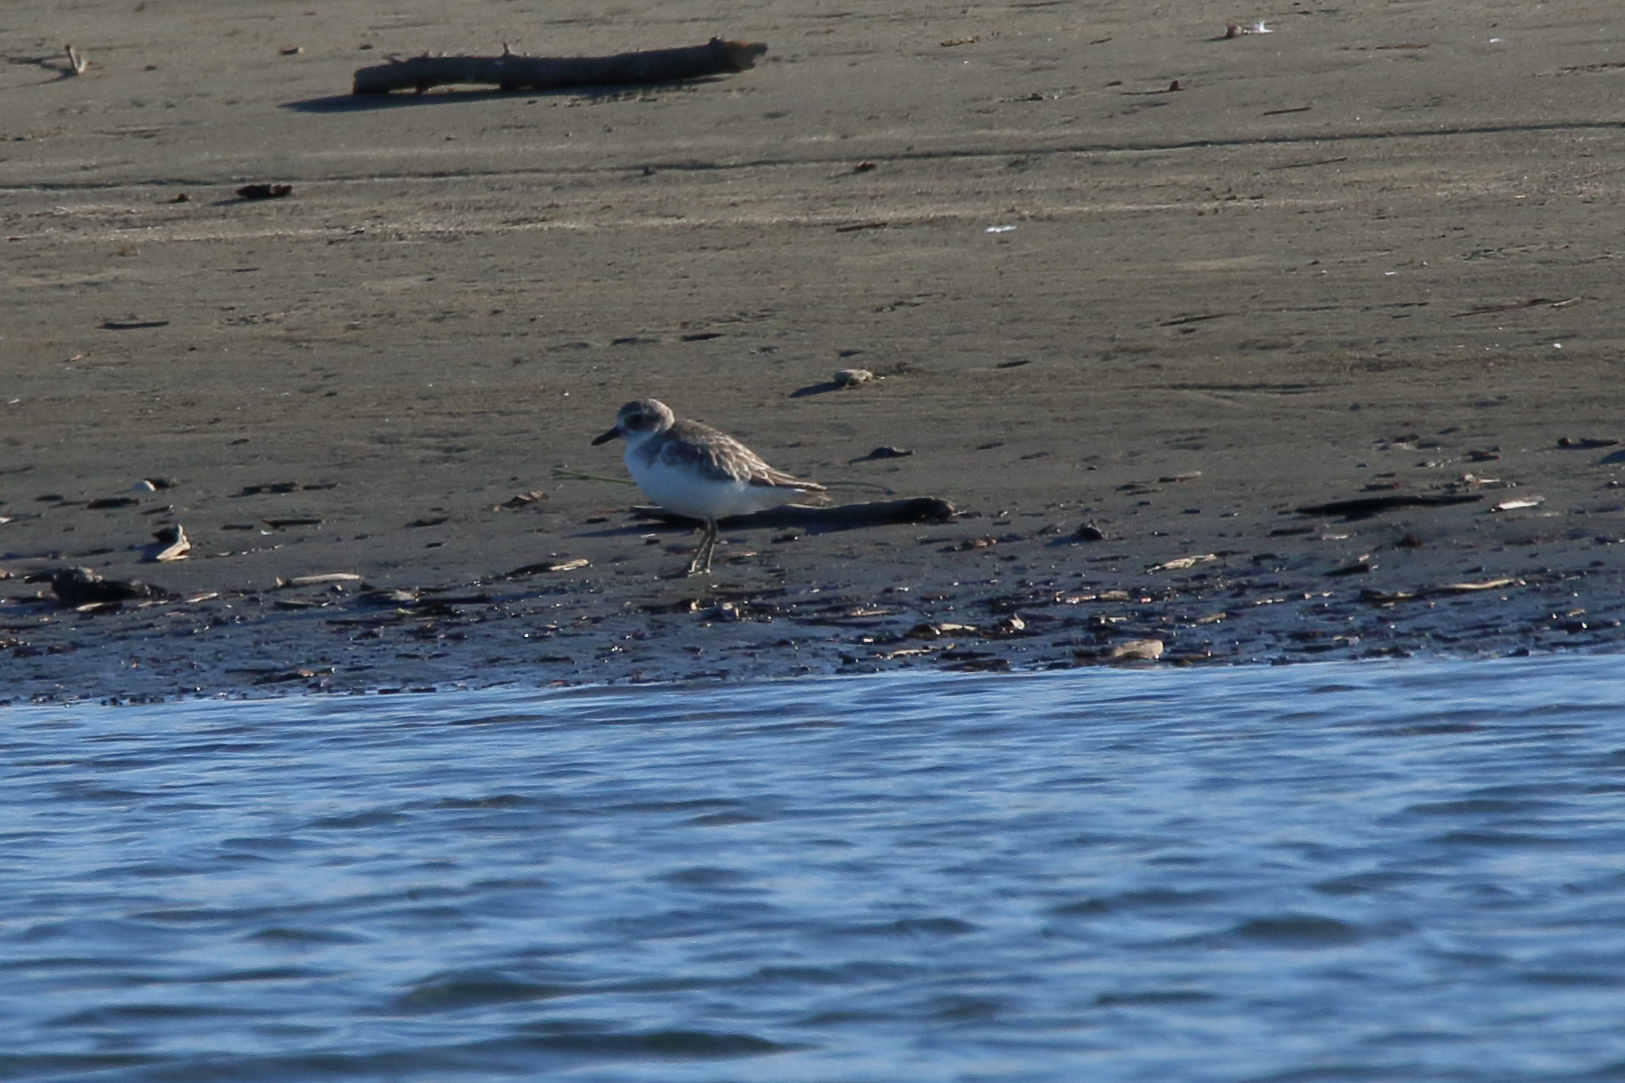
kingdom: Animalia
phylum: Chordata
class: Aves
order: Charadriiformes
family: Charadriidae
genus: Anarhynchus
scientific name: Anarhynchus
